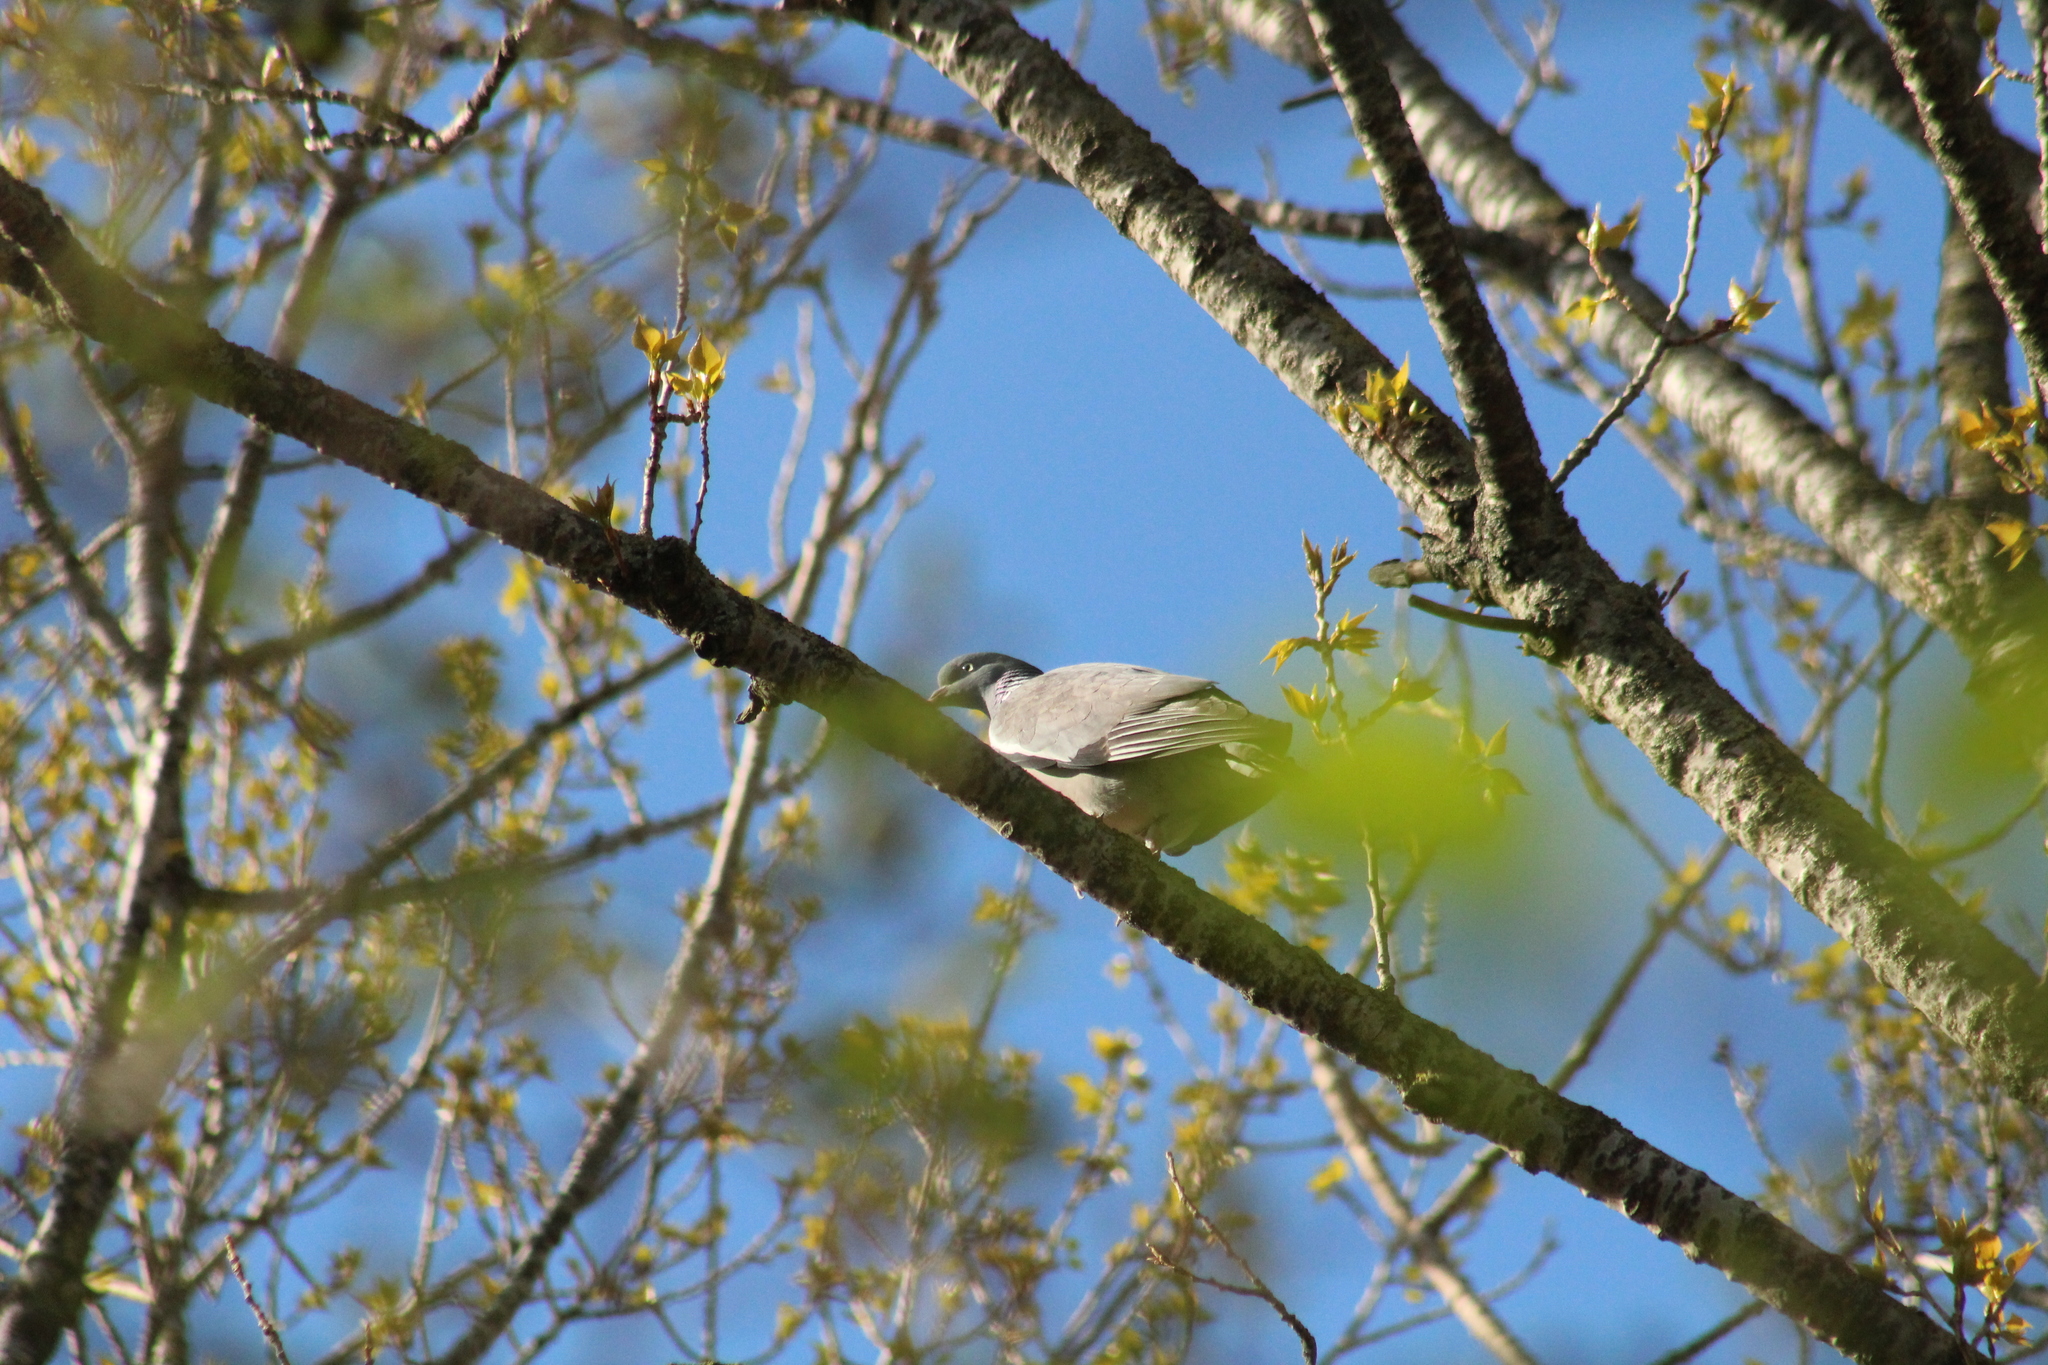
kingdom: Animalia
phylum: Chordata
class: Aves
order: Columbiformes
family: Columbidae
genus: Columba
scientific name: Columba palumbus
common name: Common wood pigeon
